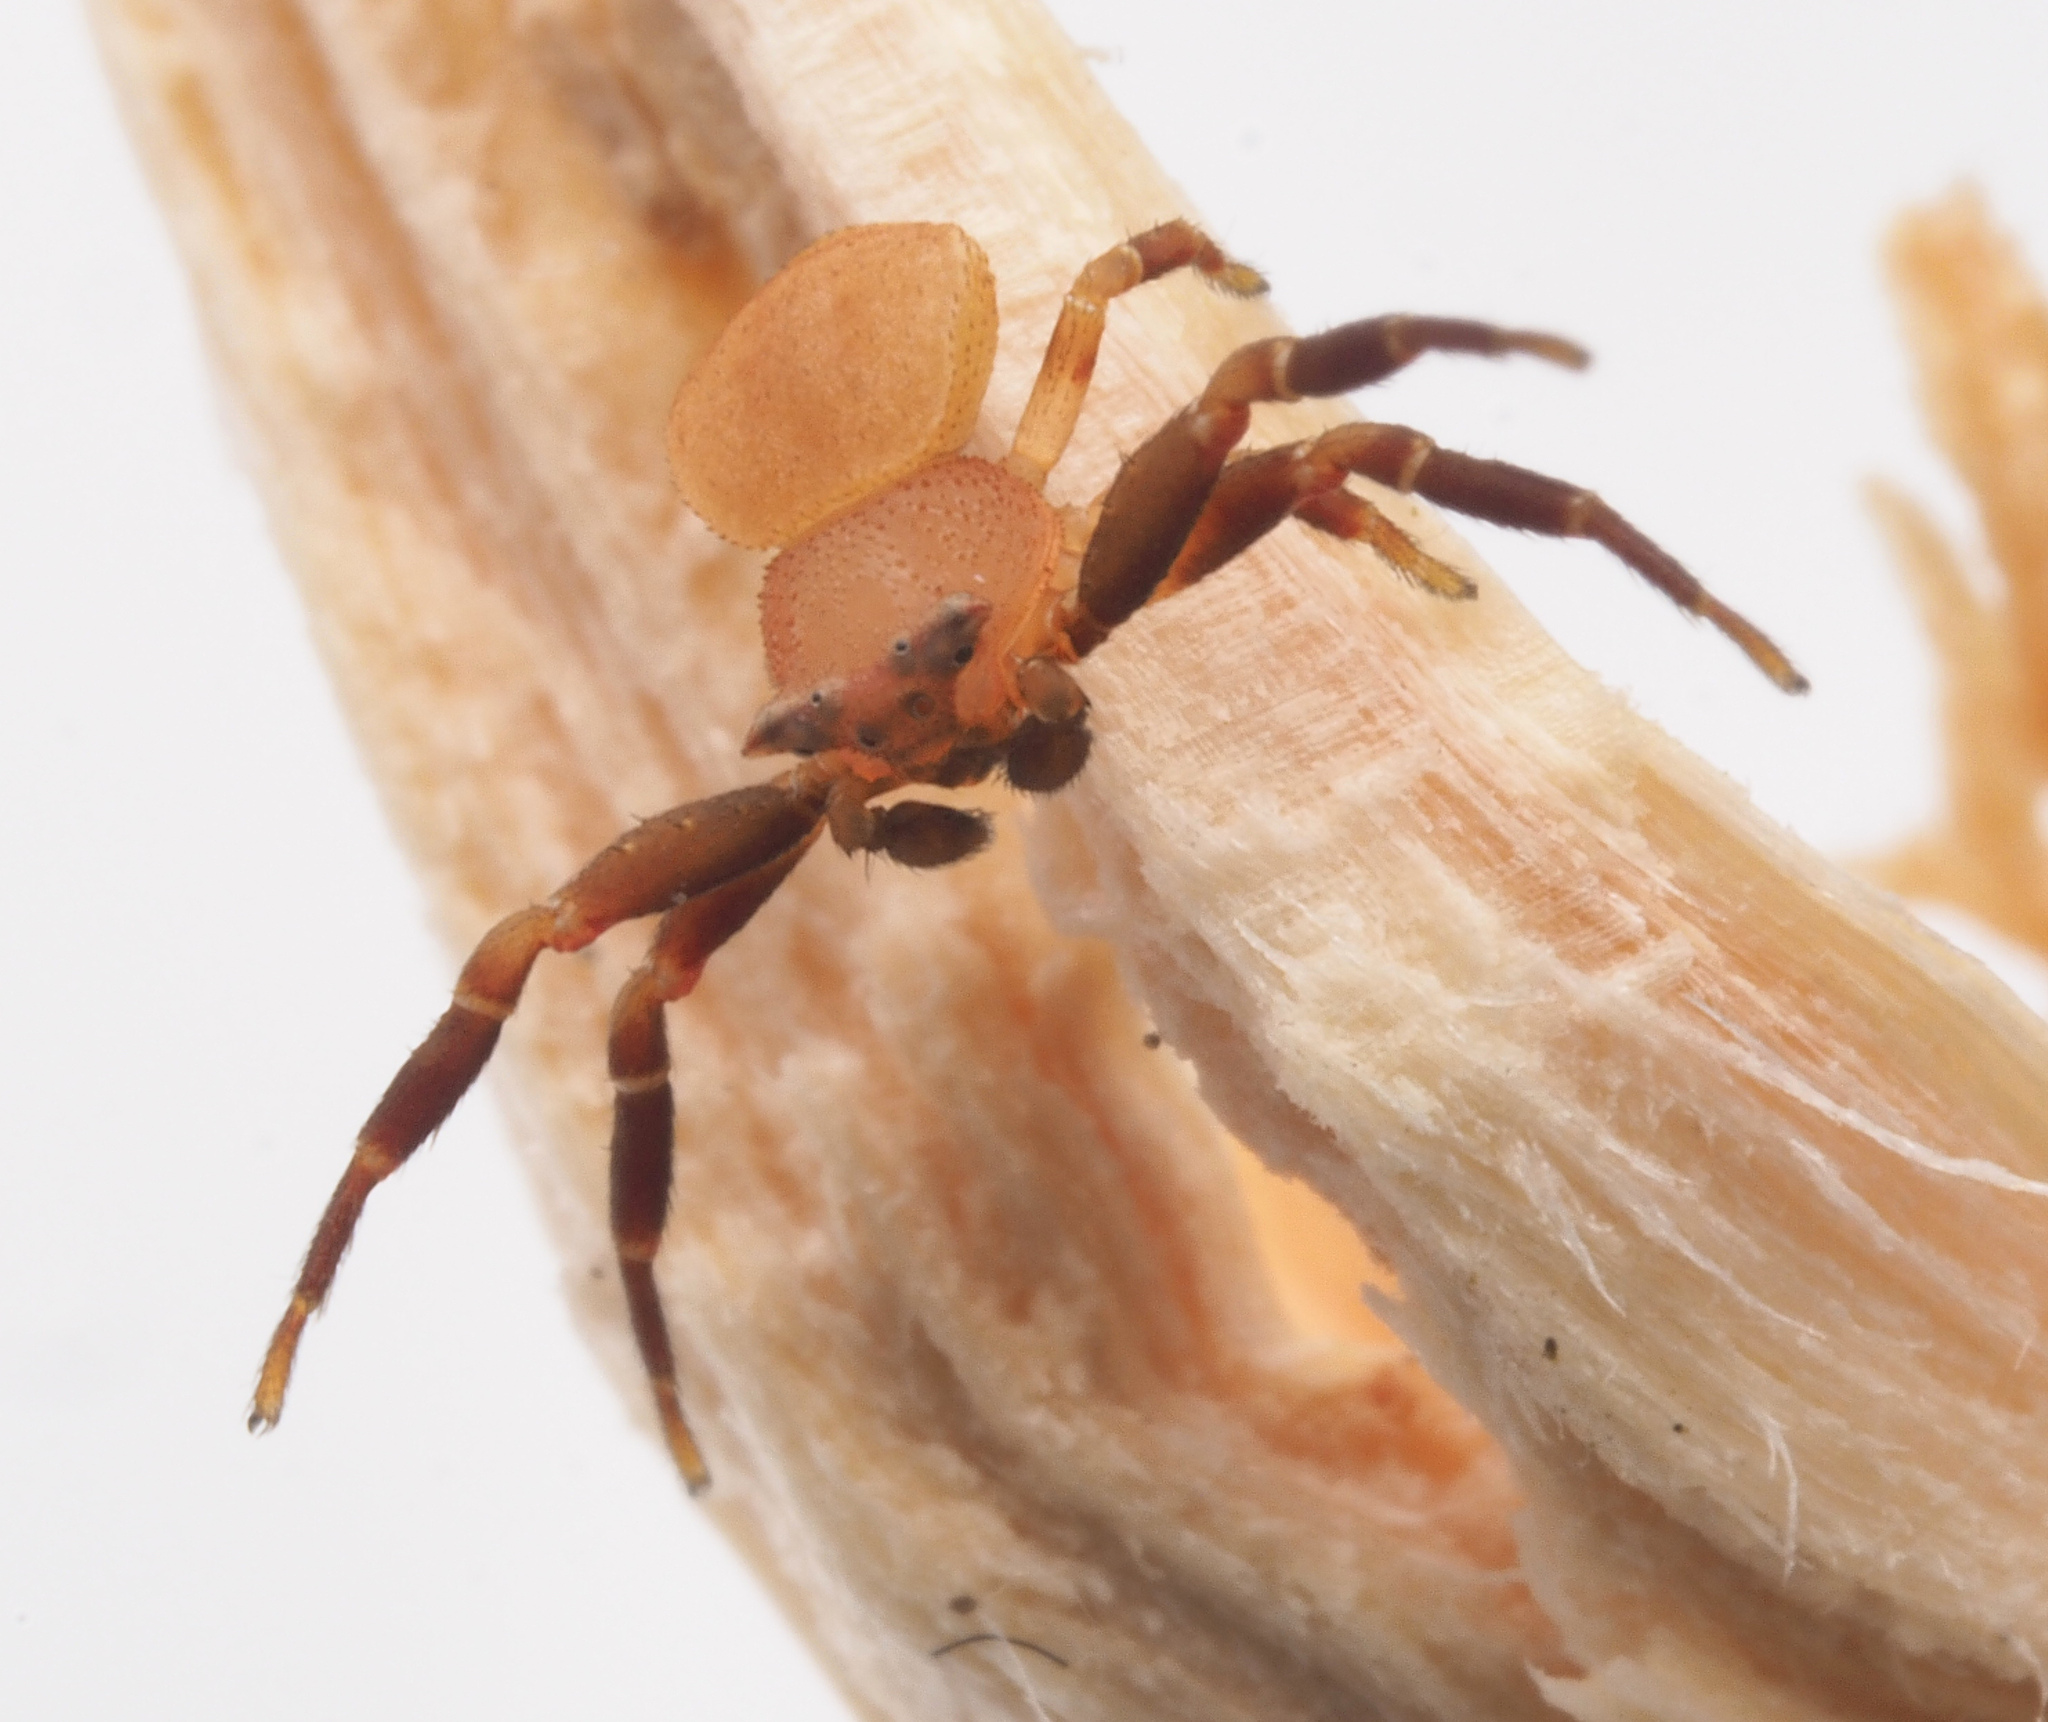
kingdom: Animalia
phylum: Arthropoda
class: Arachnida
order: Araneae
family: Thomisidae
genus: Thomisus
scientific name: Thomisus spectabilis
